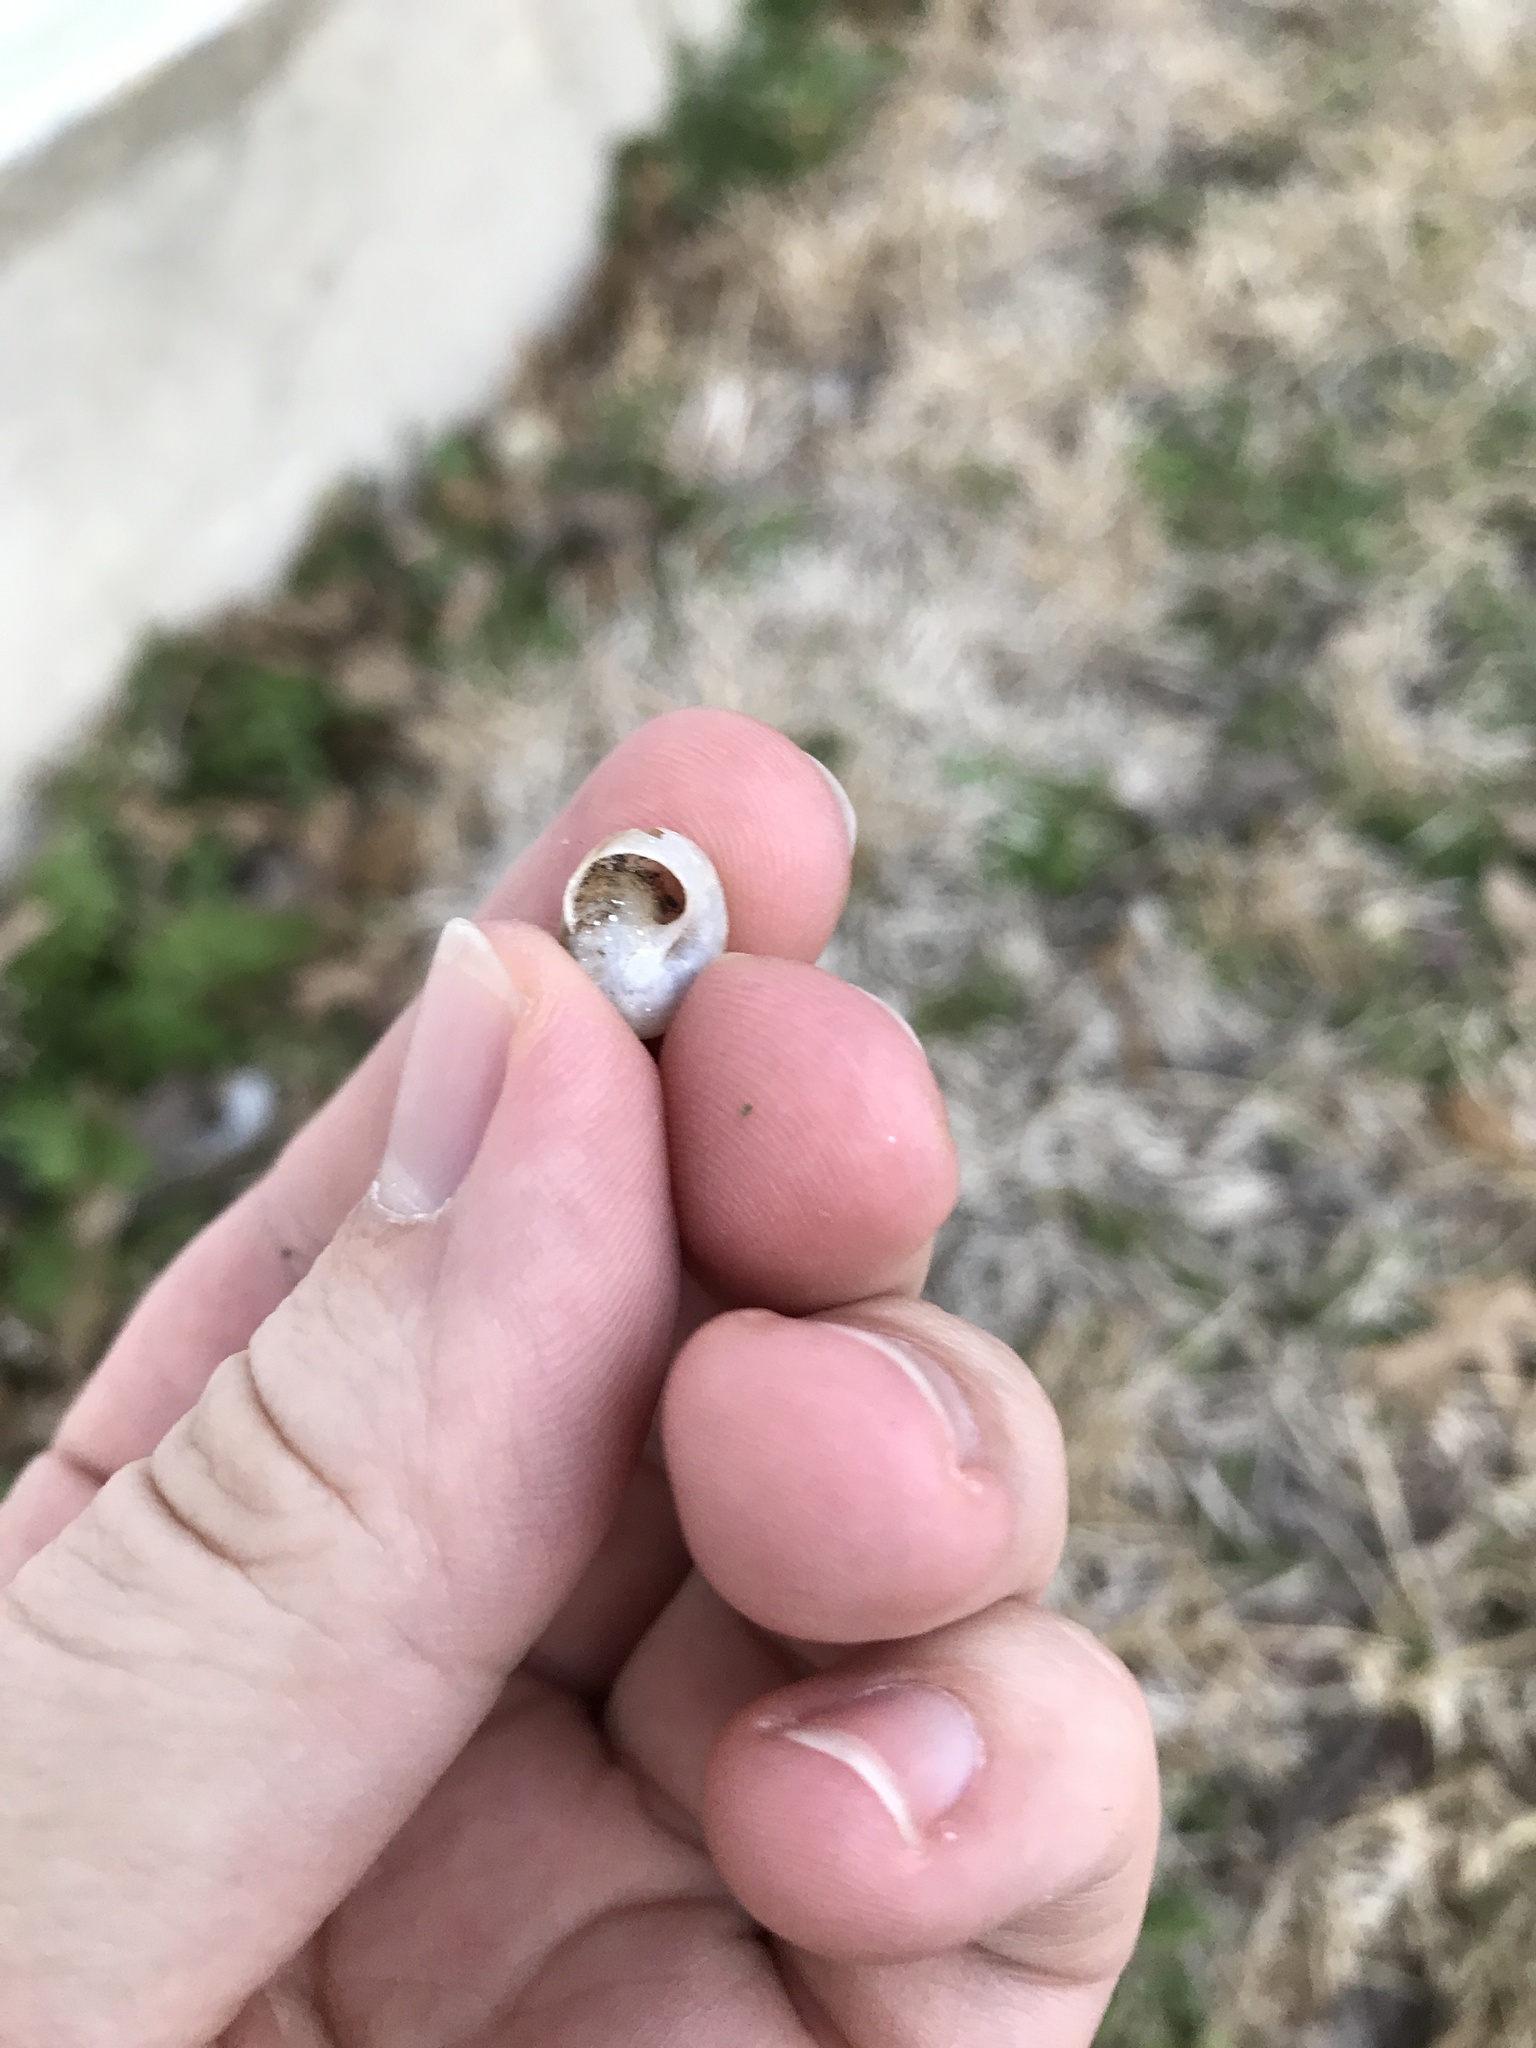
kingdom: Animalia
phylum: Mollusca
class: Gastropoda
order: Stylommatophora
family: Camaenidae
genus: Bradybaena
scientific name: Bradybaena similaris
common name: Asian trampsnail
